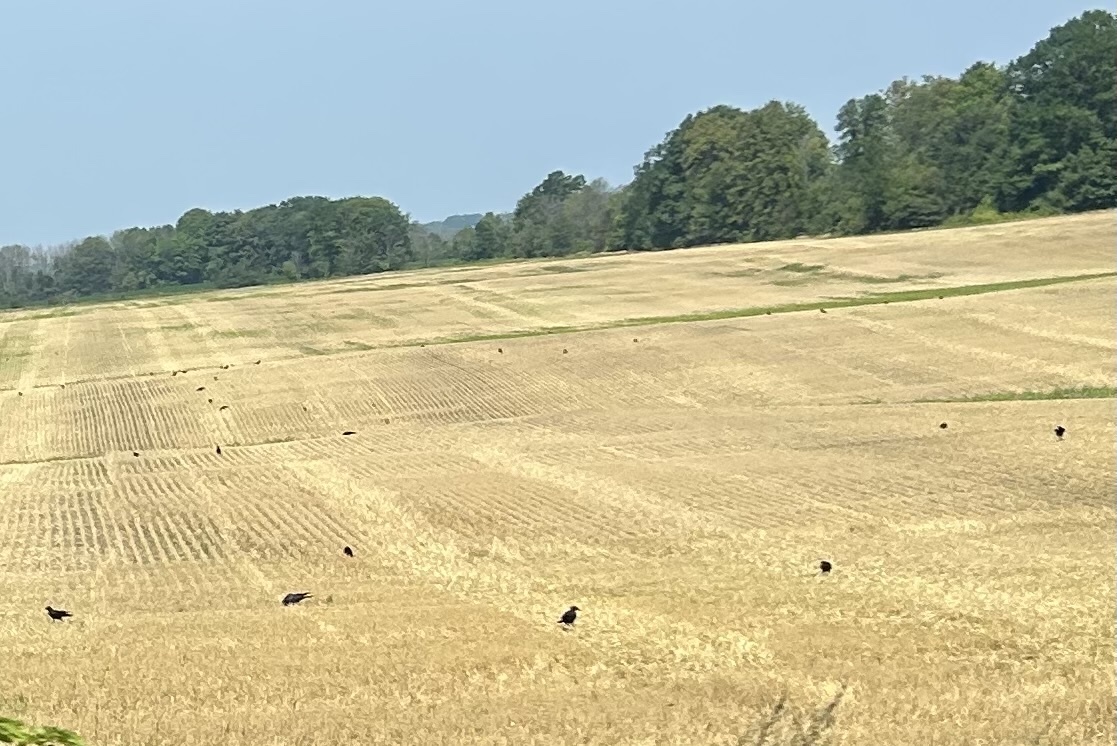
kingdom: Animalia
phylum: Chordata
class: Aves
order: Passeriformes
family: Corvidae
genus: Corvus
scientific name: Corvus brachyrhynchos
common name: American crow
